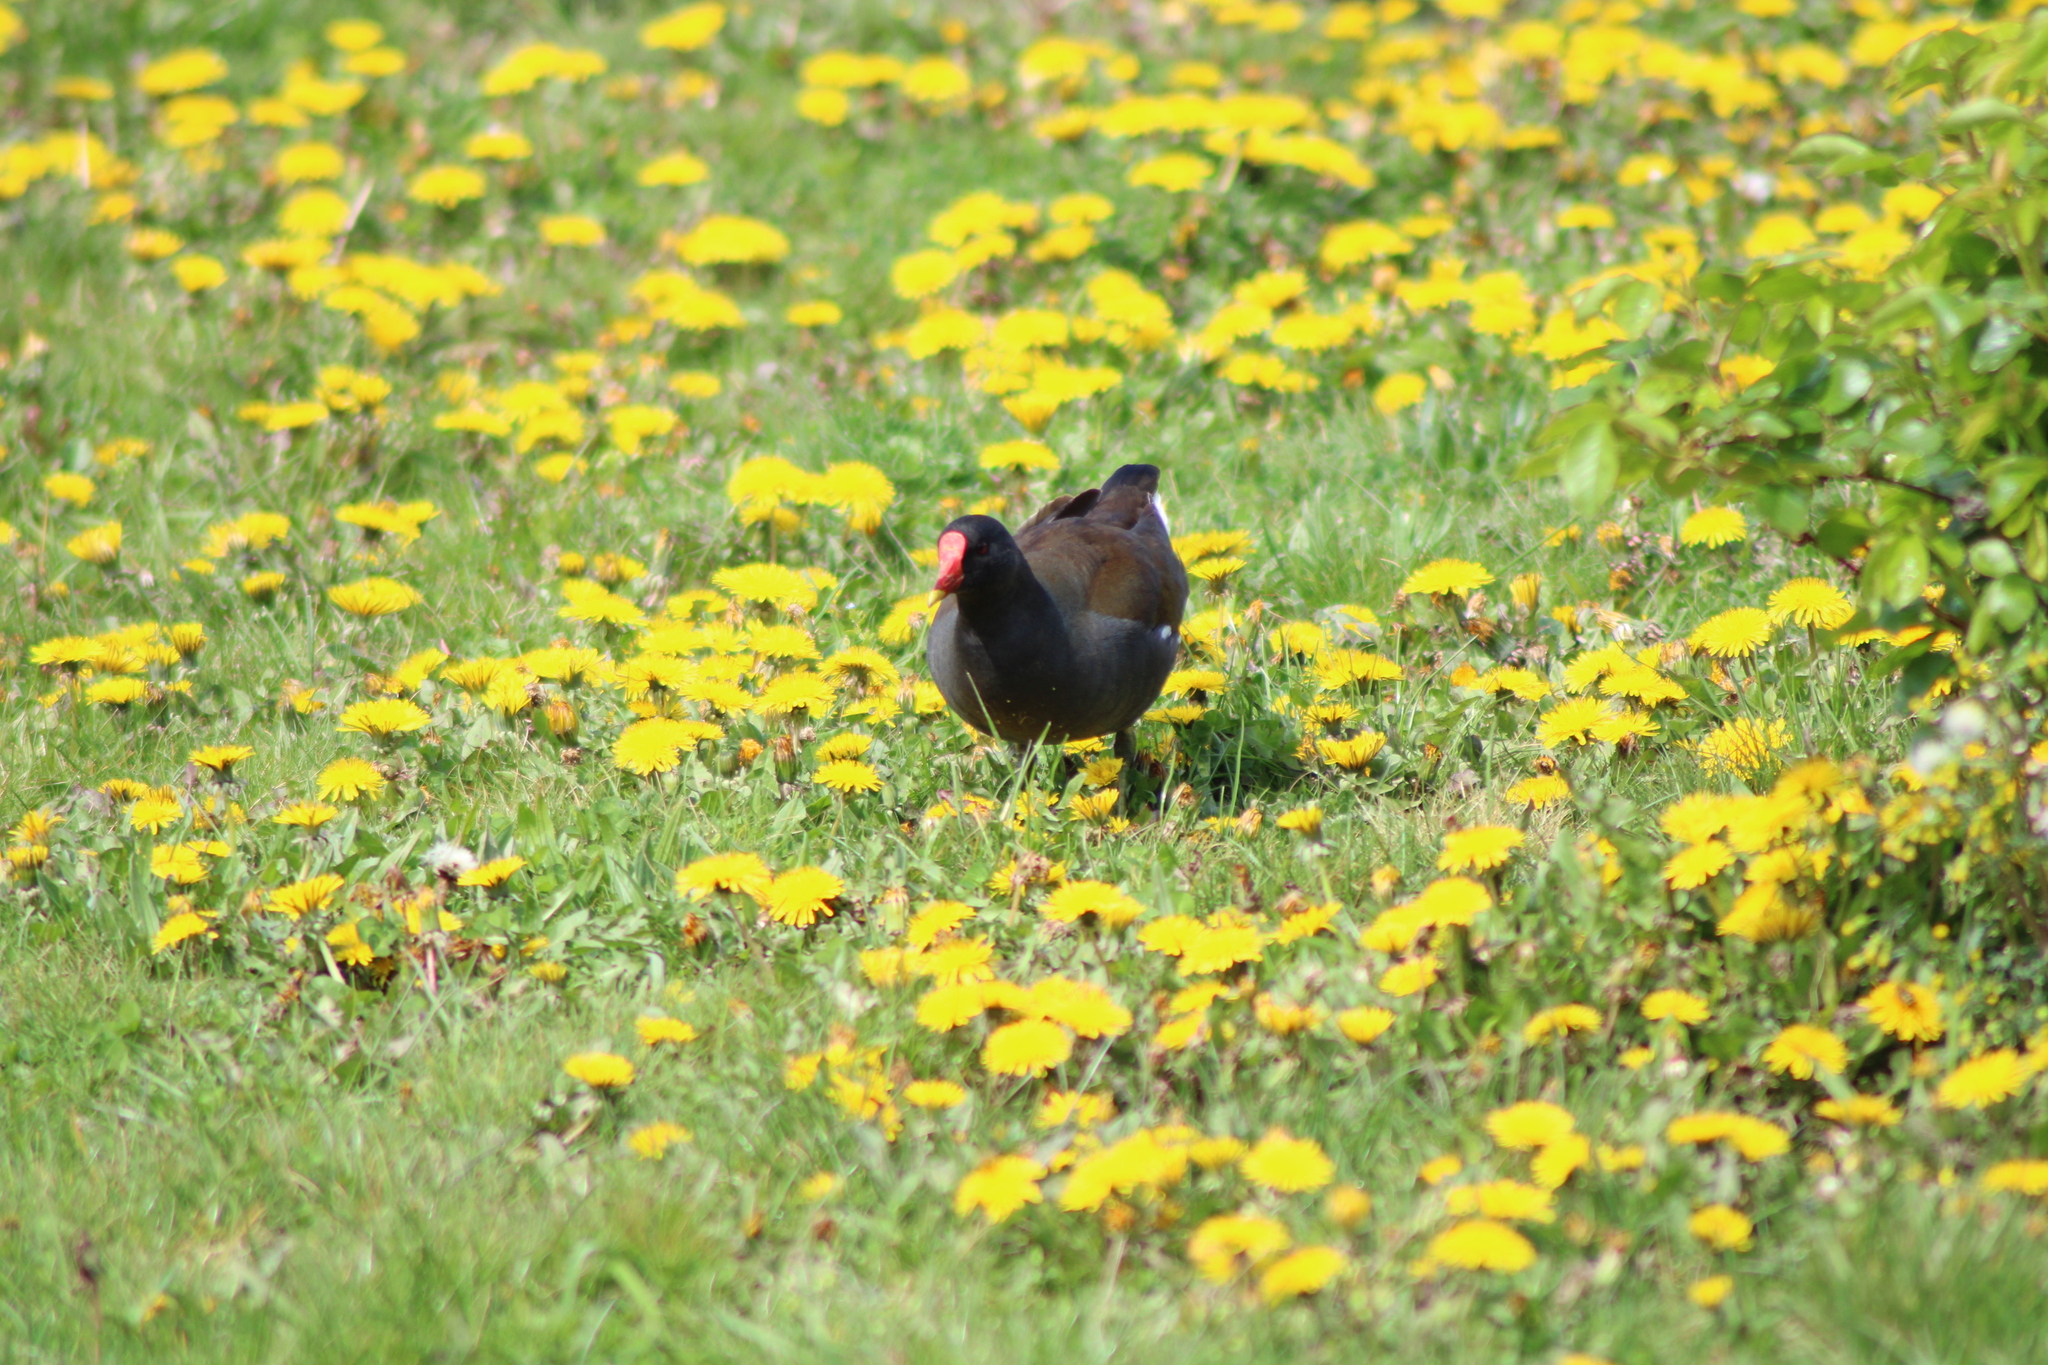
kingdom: Animalia
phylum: Chordata
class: Aves
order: Gruiformes
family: Rallidae
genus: Gallinula
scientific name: Gallinula chloropus
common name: Common moorhen
